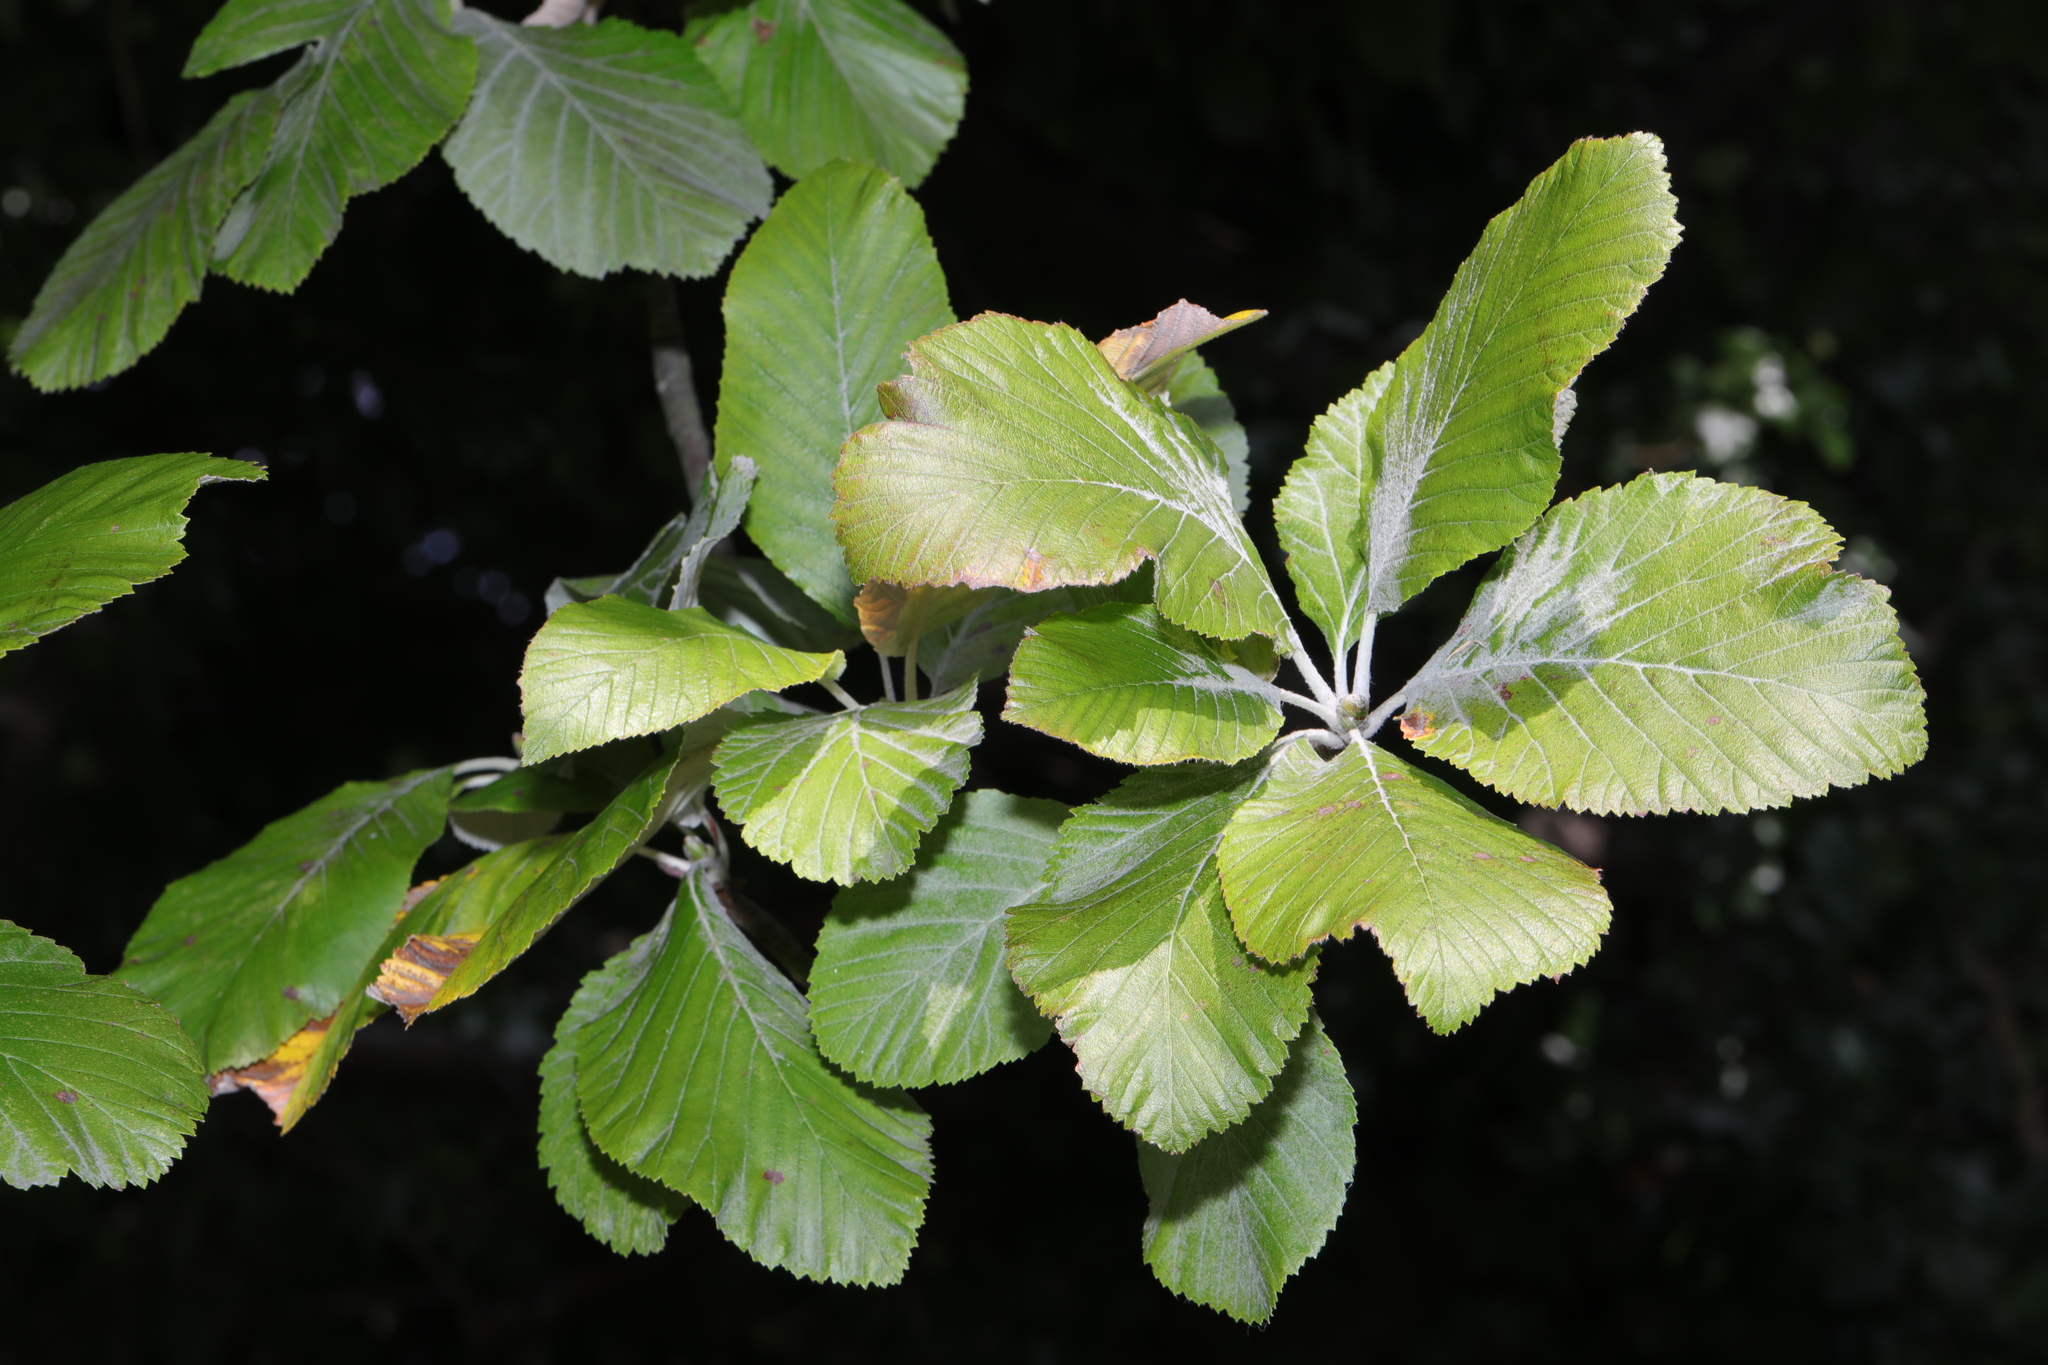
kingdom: Plantae
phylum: Tracheophyta
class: Magnoliopsida
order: Rosales
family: Rosaceae
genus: Aria
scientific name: Aria edulis
